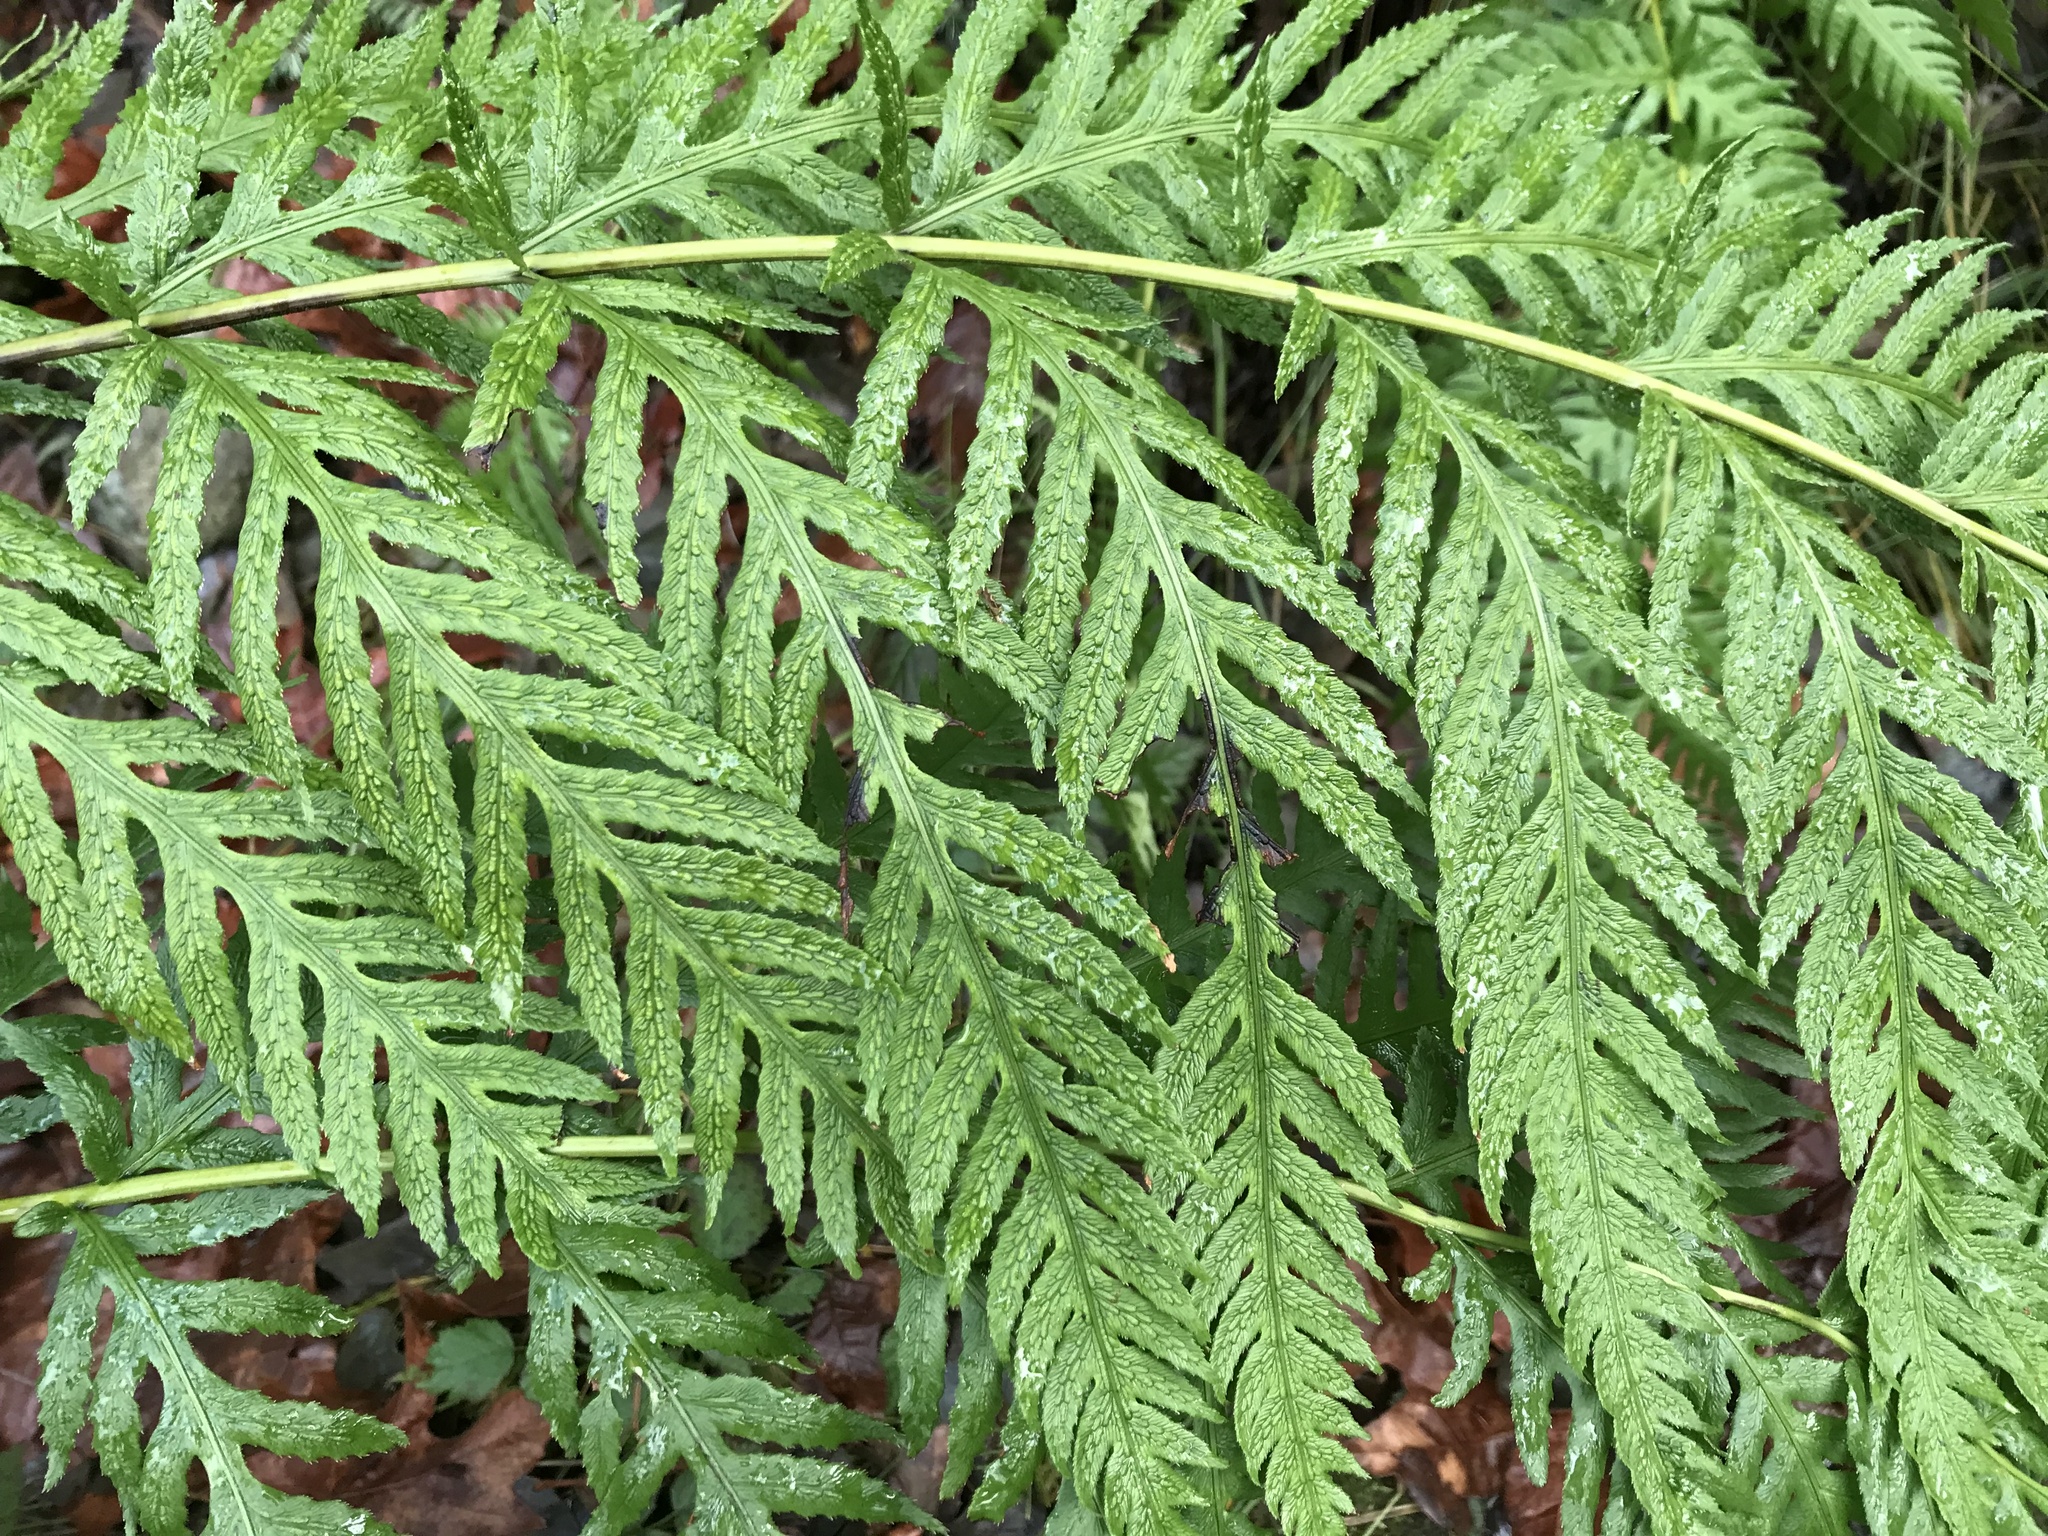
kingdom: Plantae
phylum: Tracheophyta
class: Polypodiopsida
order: Polypodiales
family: Blechnaceae
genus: Woodwardia
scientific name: Woodwardia fimbriata
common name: Giant chain fern
